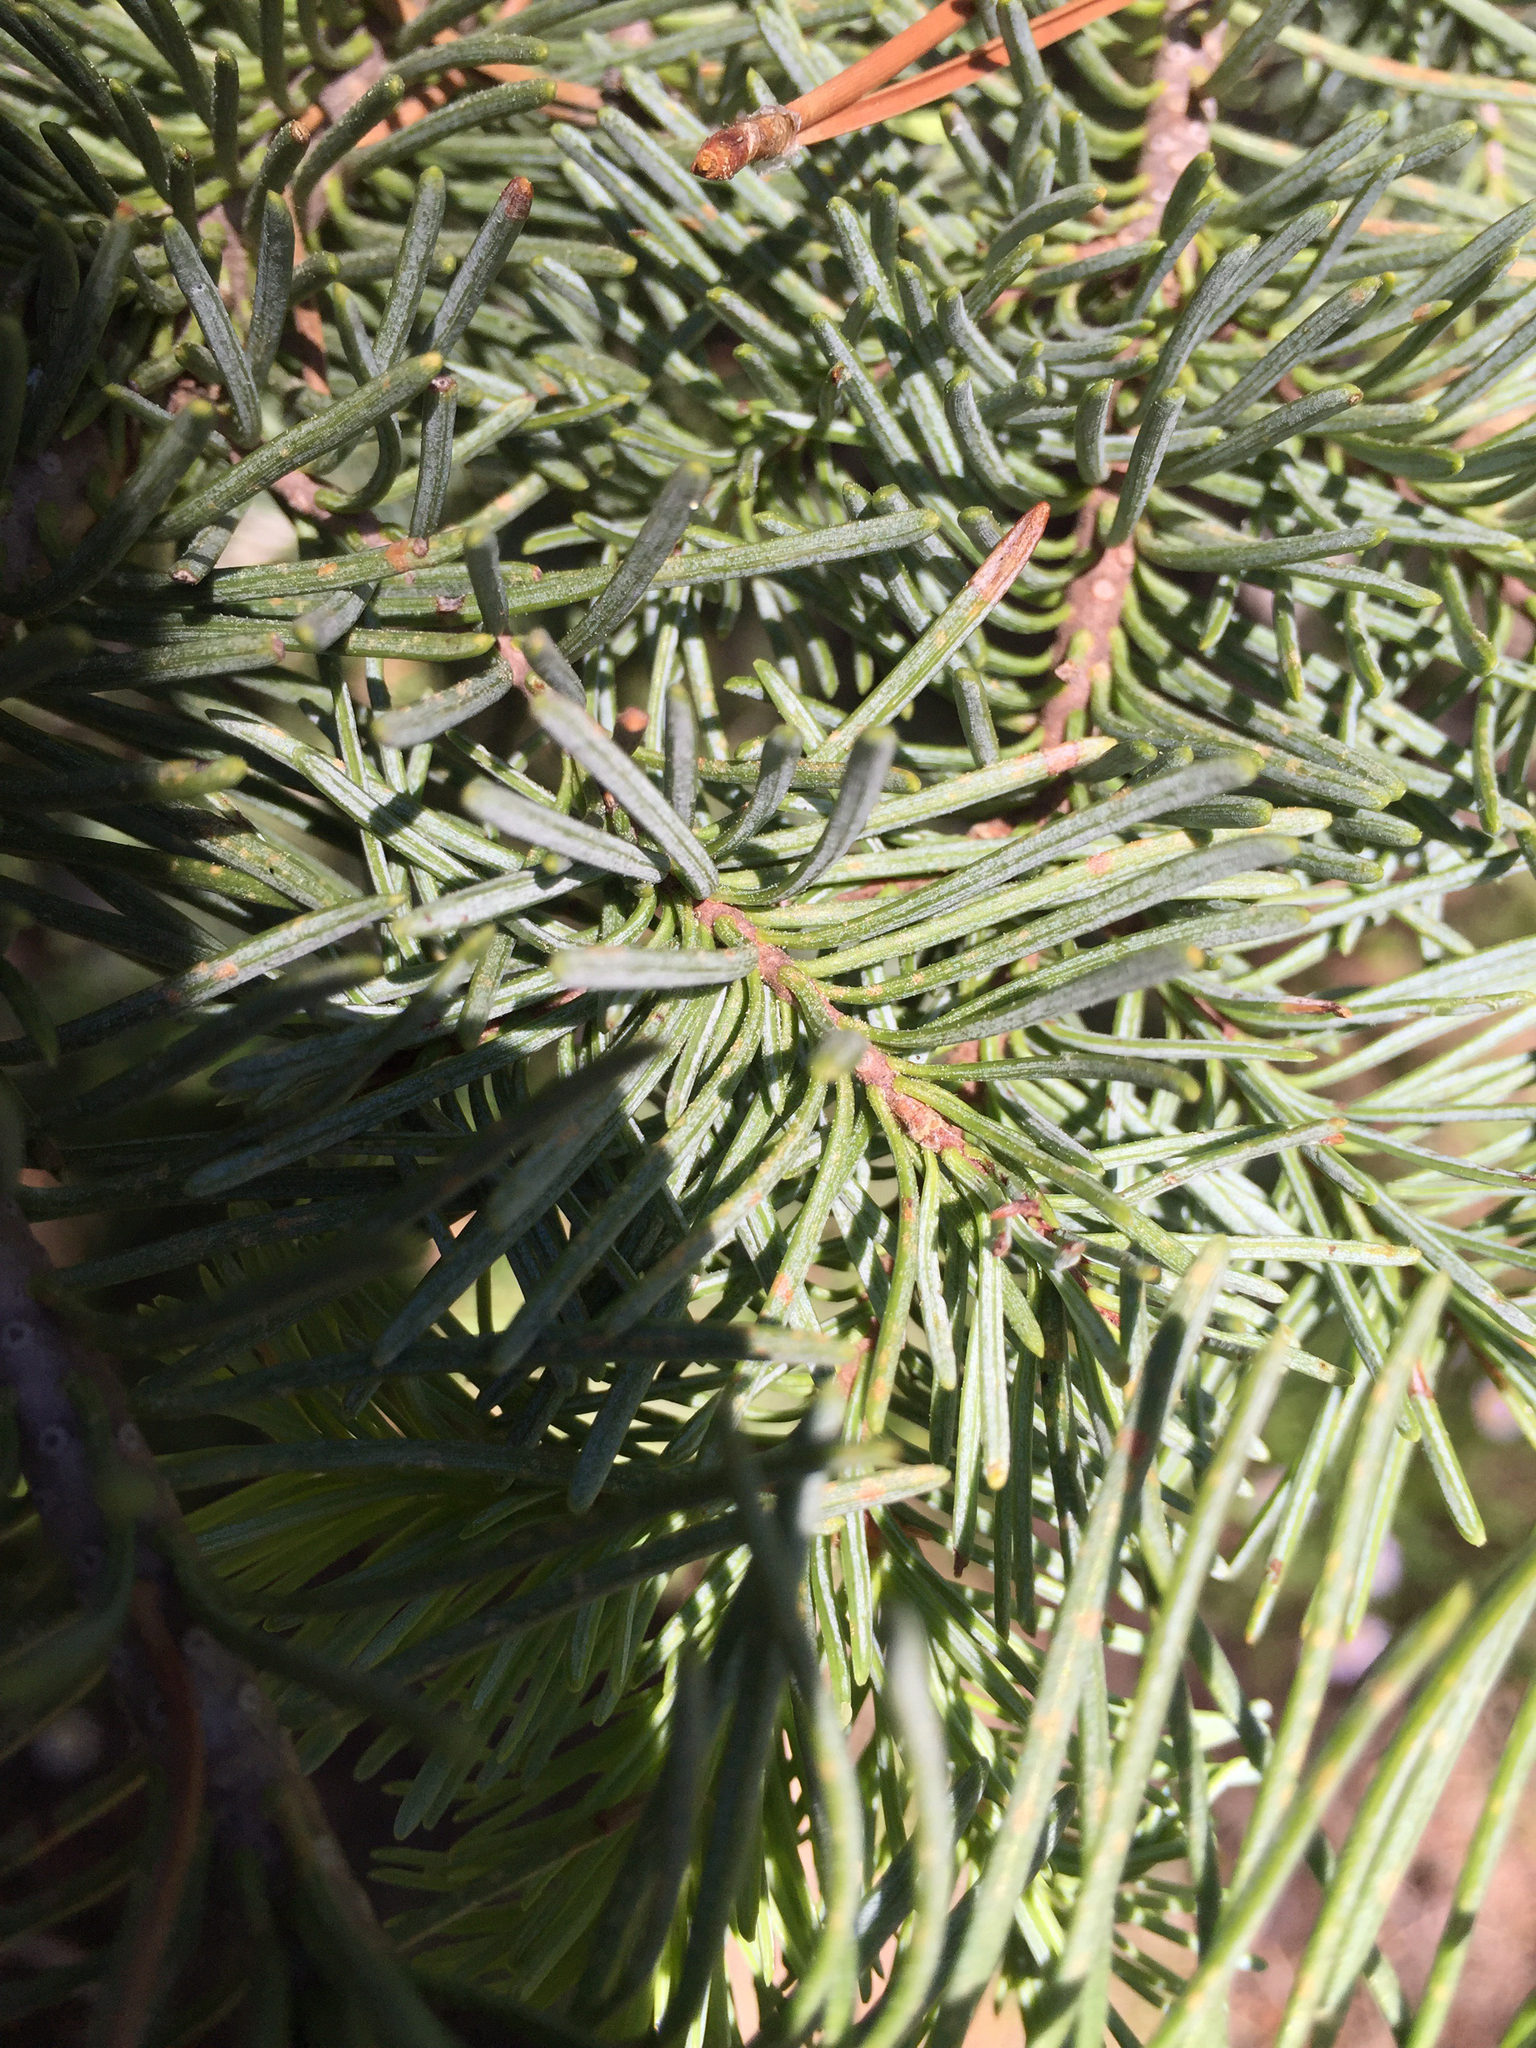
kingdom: Plantae
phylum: Tracheophyta
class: Pinopsida
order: Pinales
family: Pinaceae
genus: Abies
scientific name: Abies magnifica bis
